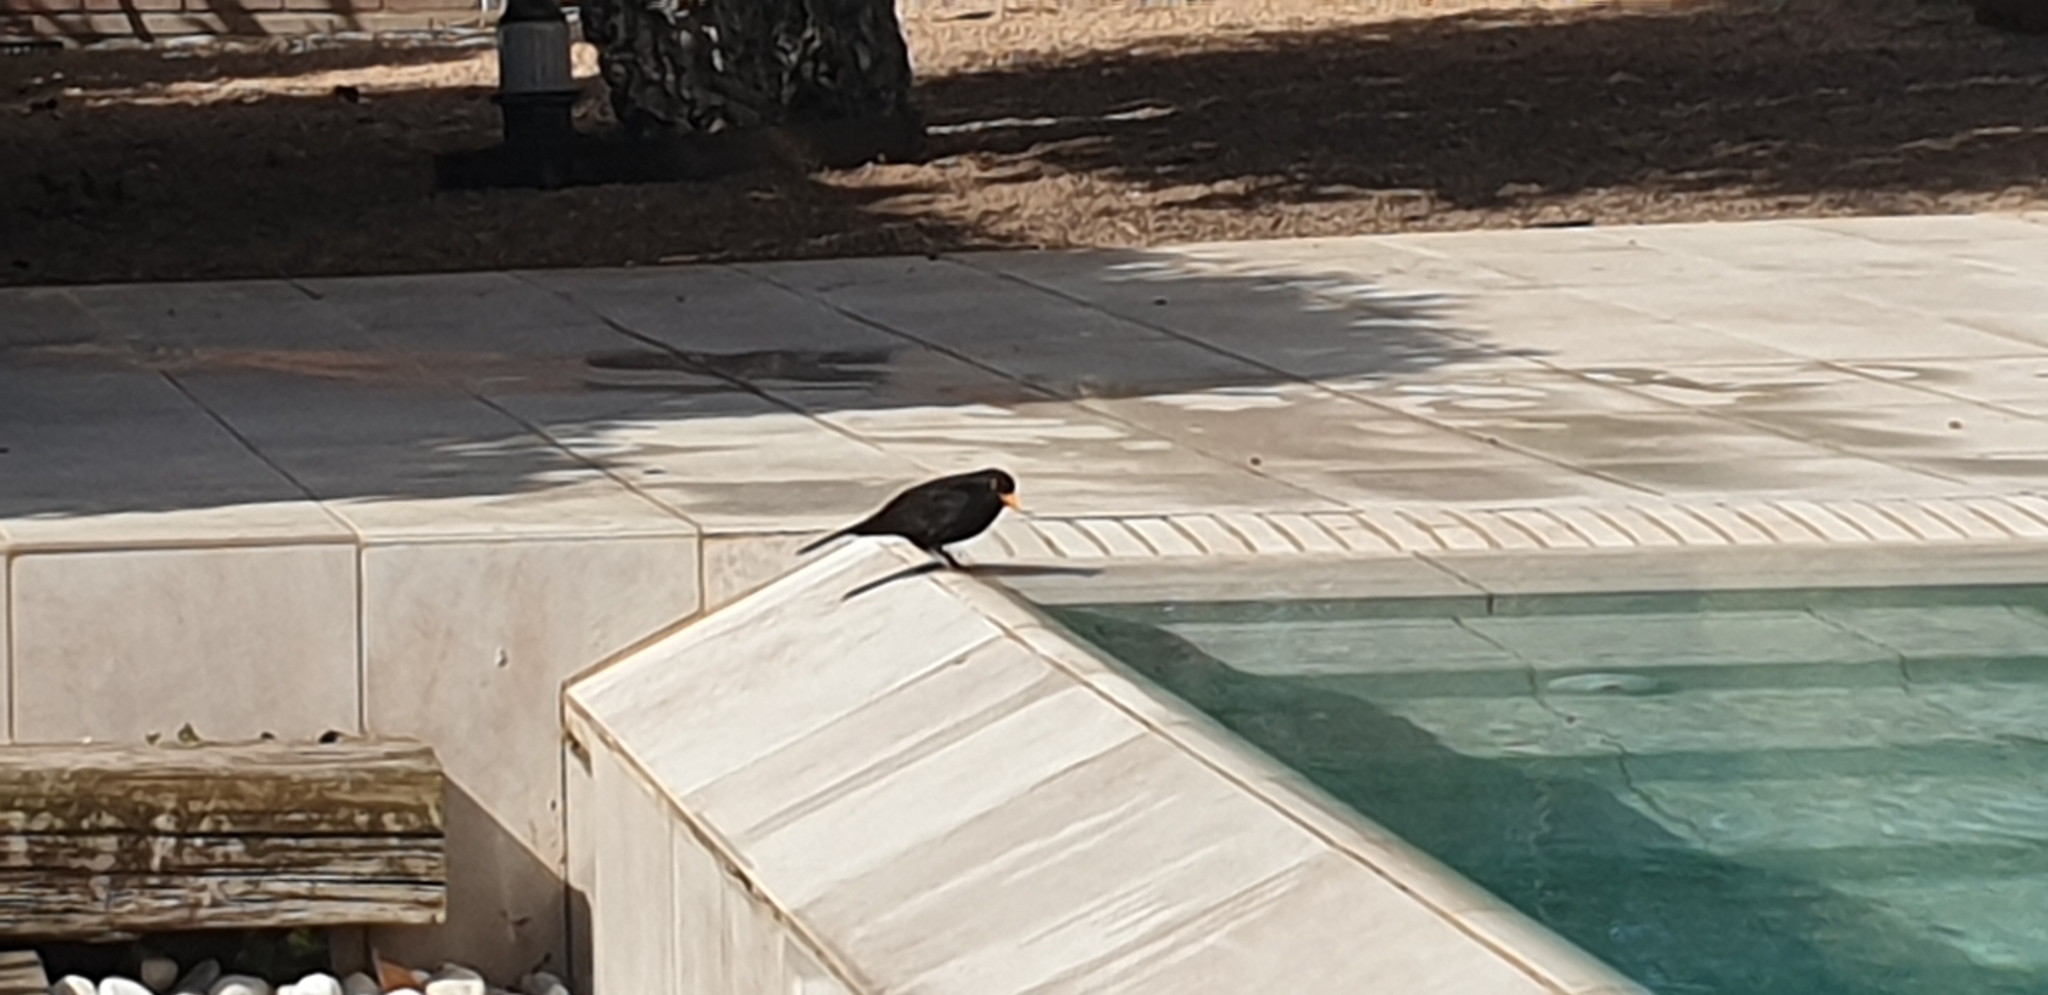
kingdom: Animalia
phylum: Chordata
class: Aves
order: Passeriformes
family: Turdidae
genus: Turdus
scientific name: Turdus merula
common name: Common blackbird
